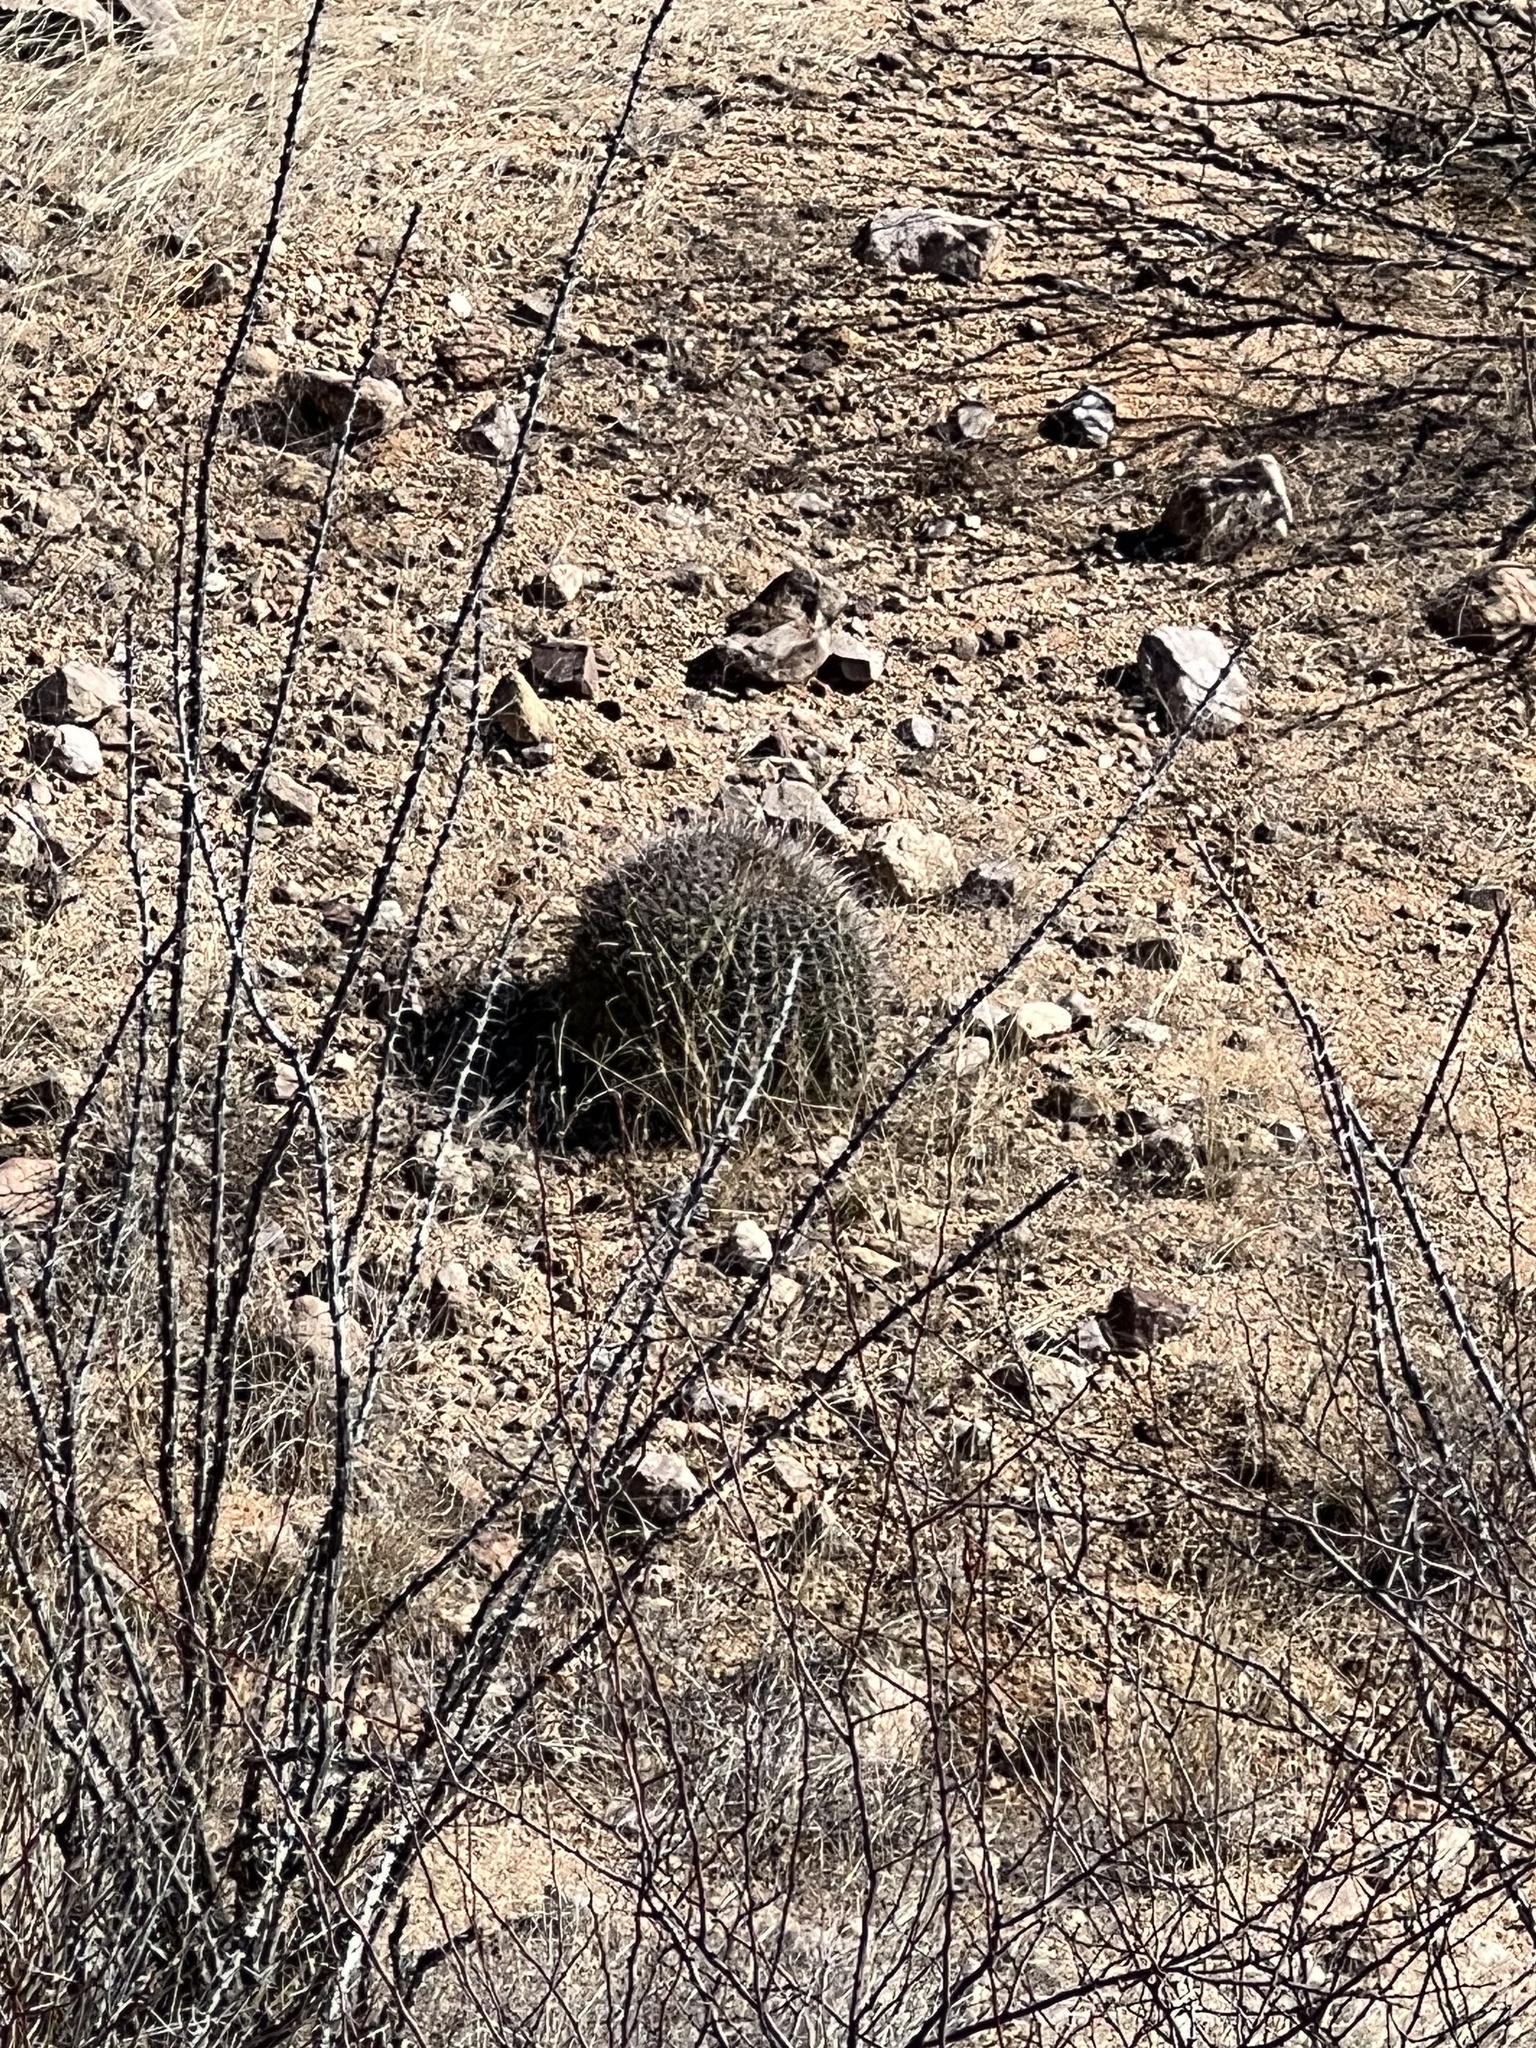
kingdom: Plantae
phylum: Tracheophyta
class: Magnoliopsida
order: Caryophyllales
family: Cactaceae
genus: Ferocactus
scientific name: Ferocactus wislizeni
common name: Candy barrel cactus
